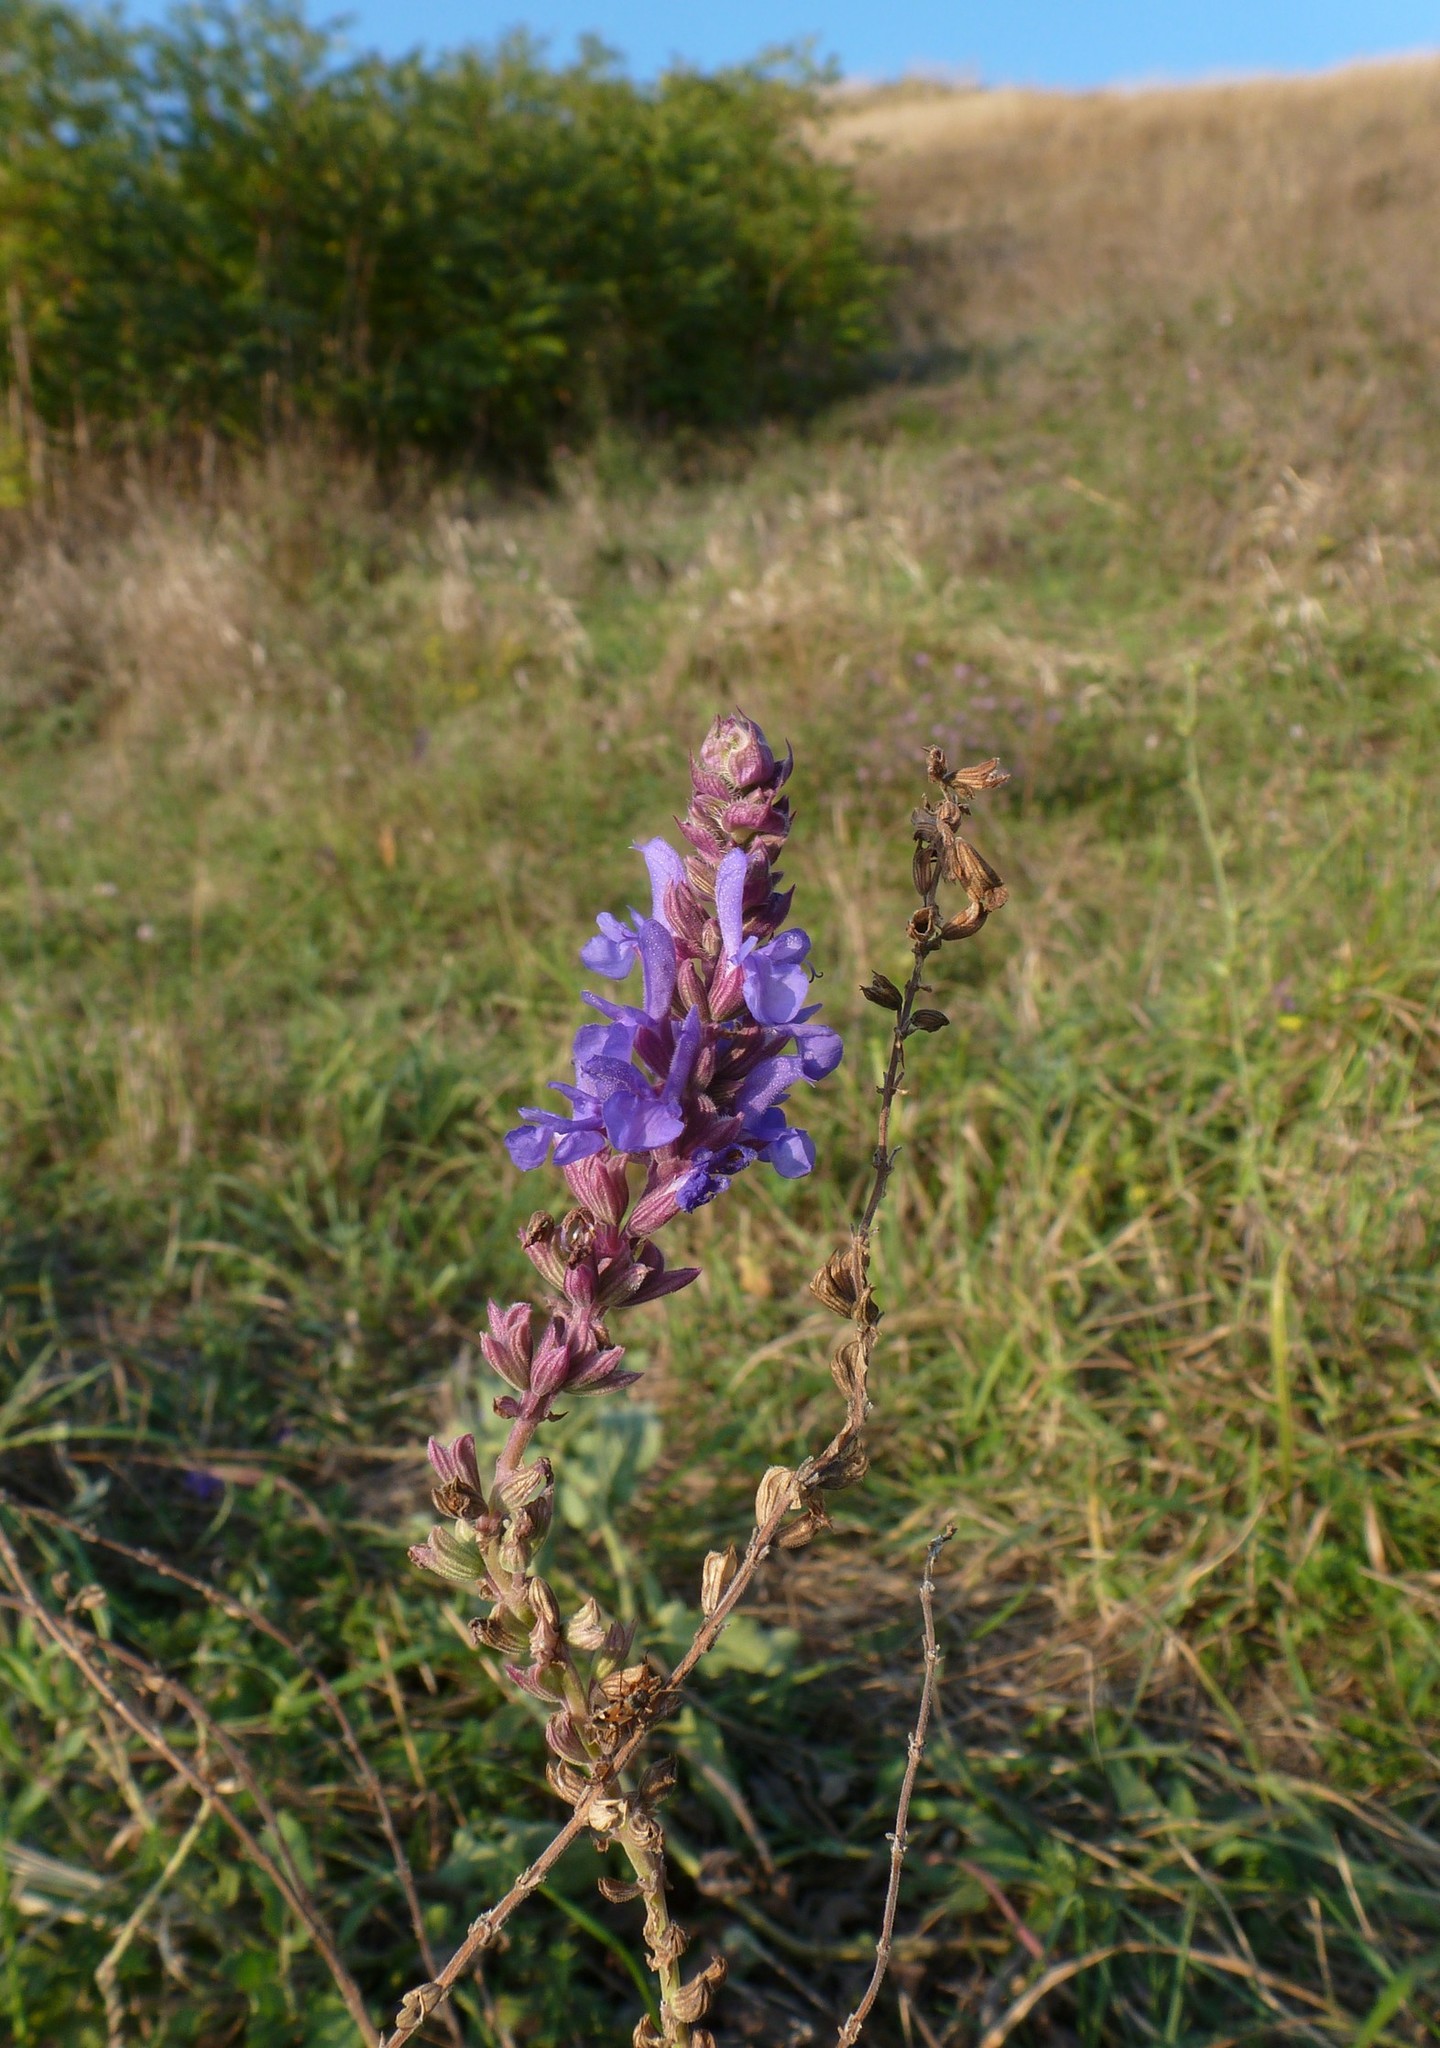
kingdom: Plantae
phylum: Tracheophyta
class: Magnoliopsida
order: Lamiales
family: Lamiaceae
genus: Salvia
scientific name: Salvia nemorosa
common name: Balkan clary
